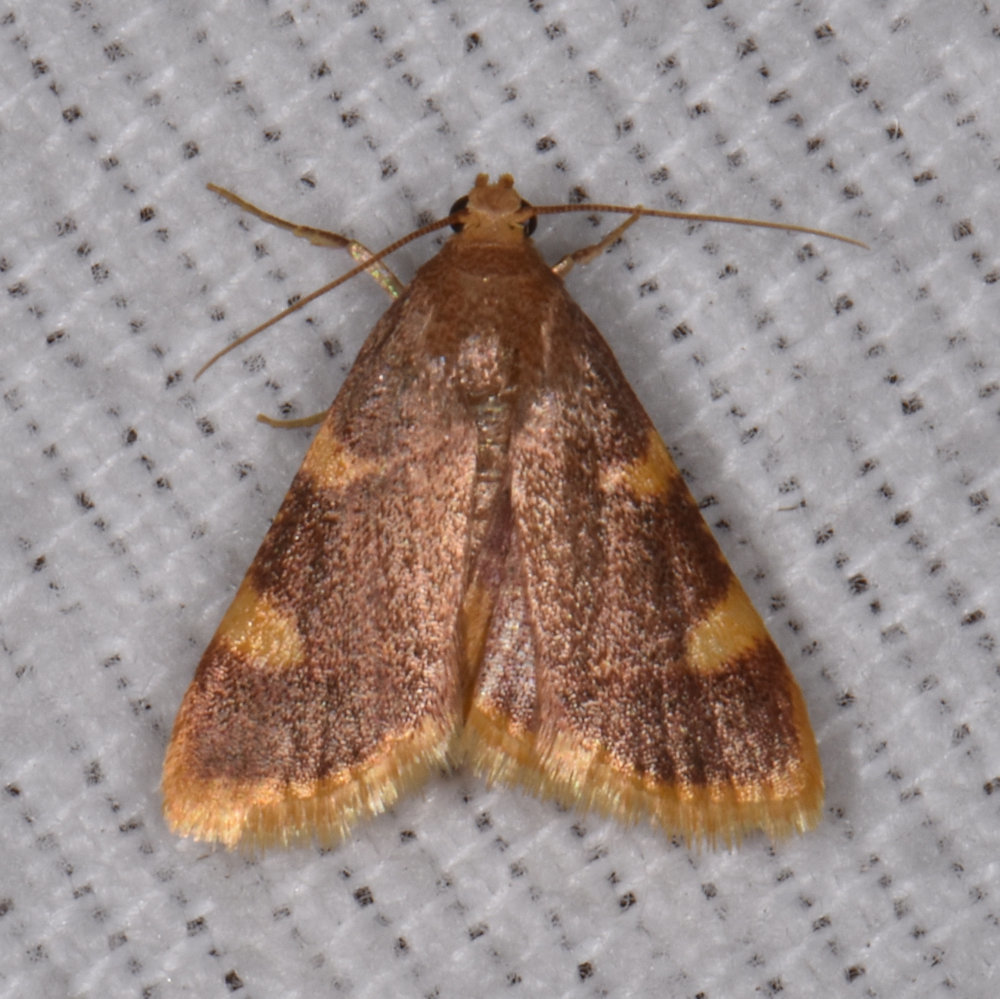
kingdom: Animalia
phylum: Arthropoda
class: Insecta
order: Lepidoptera
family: Pyralidae
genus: Hypsopygia
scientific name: Hypsopygia costalis
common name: Gold triangle
